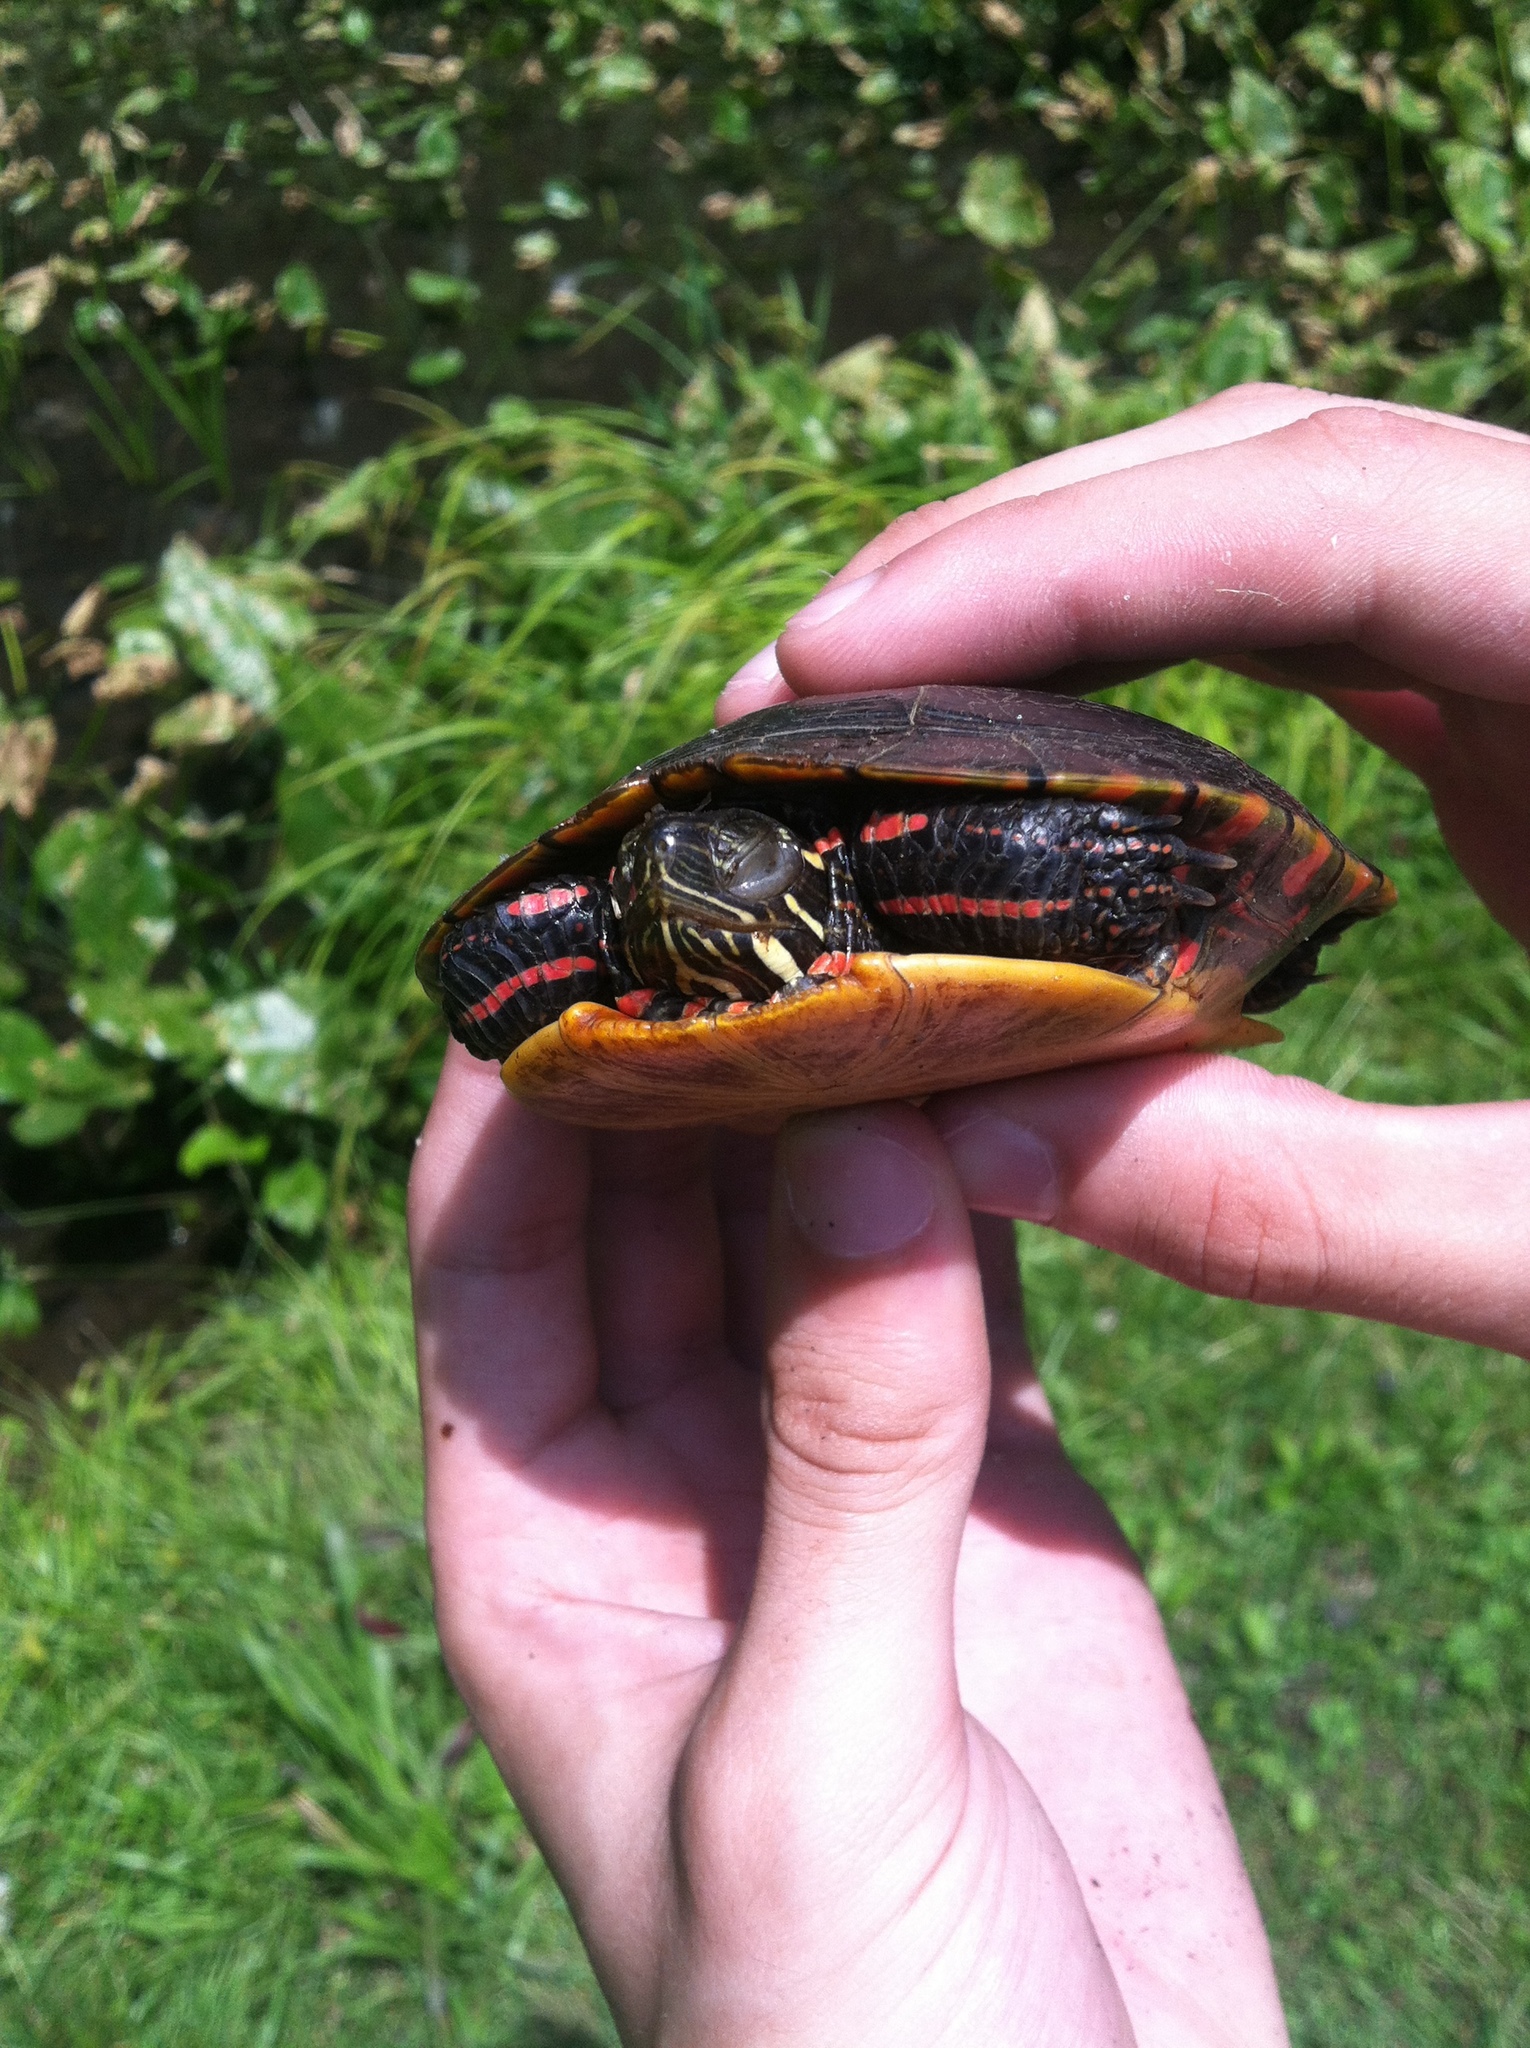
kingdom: Animalia
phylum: Chordata
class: Testudines
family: Emydidae
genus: Chrysemys
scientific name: Chrysemys picta
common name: Painted turtle
